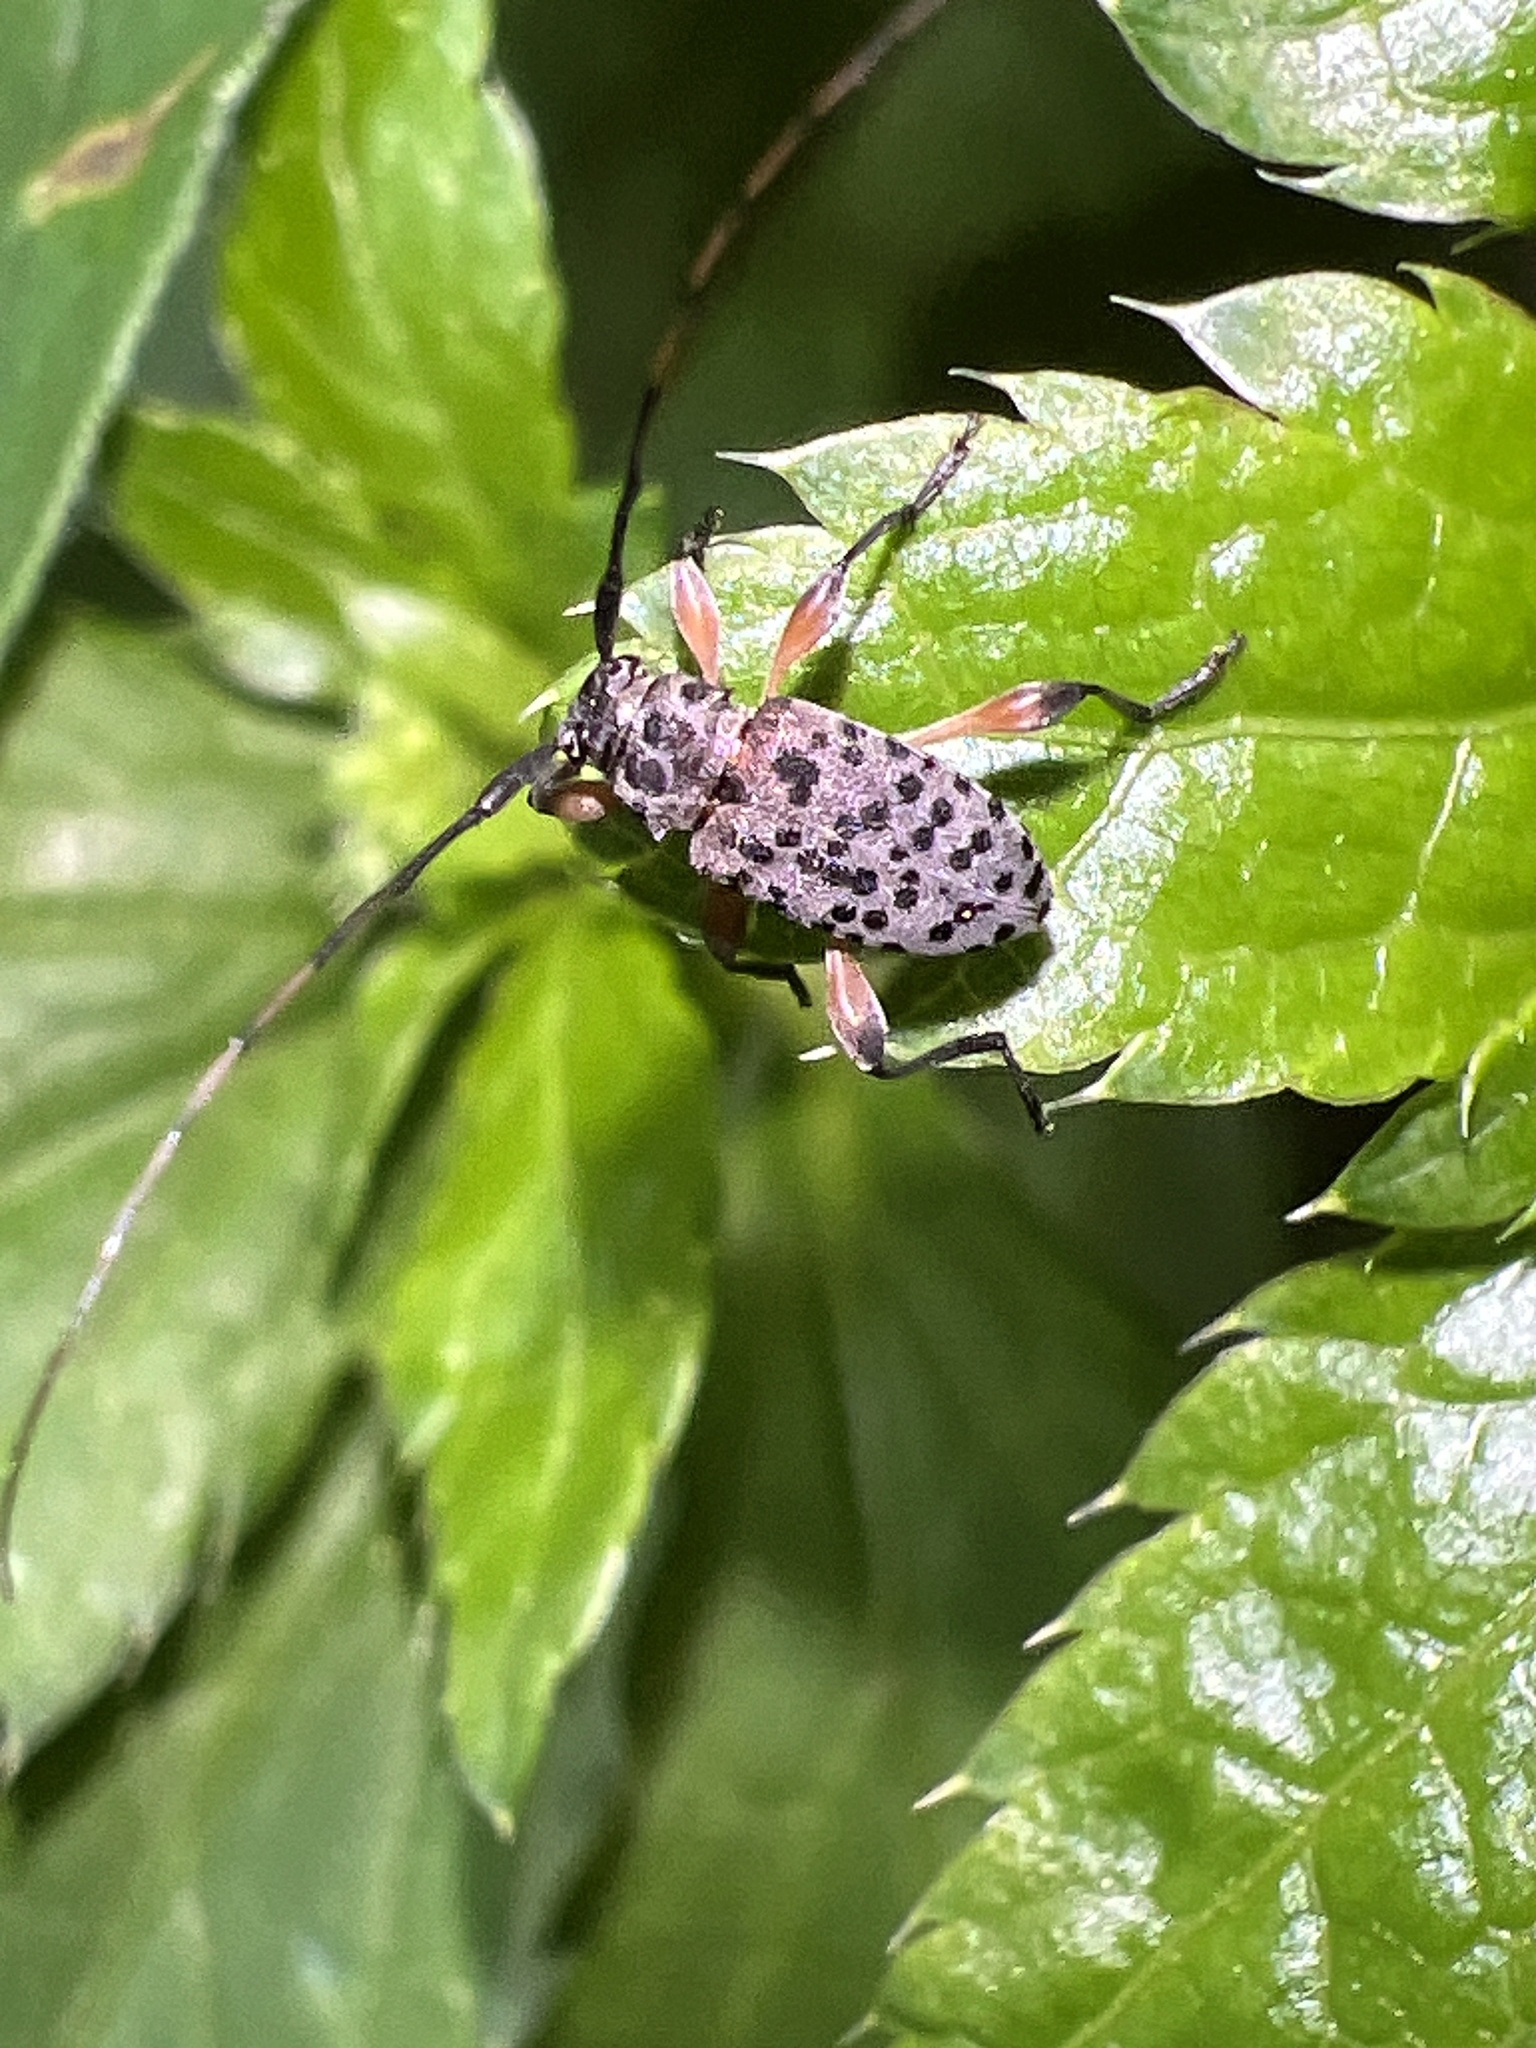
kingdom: Animalia
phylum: Arthropoda
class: Insecta
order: Coleoptera
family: Cerambycidae
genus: Hyperplatys
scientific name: Hyperplatys aspersa
